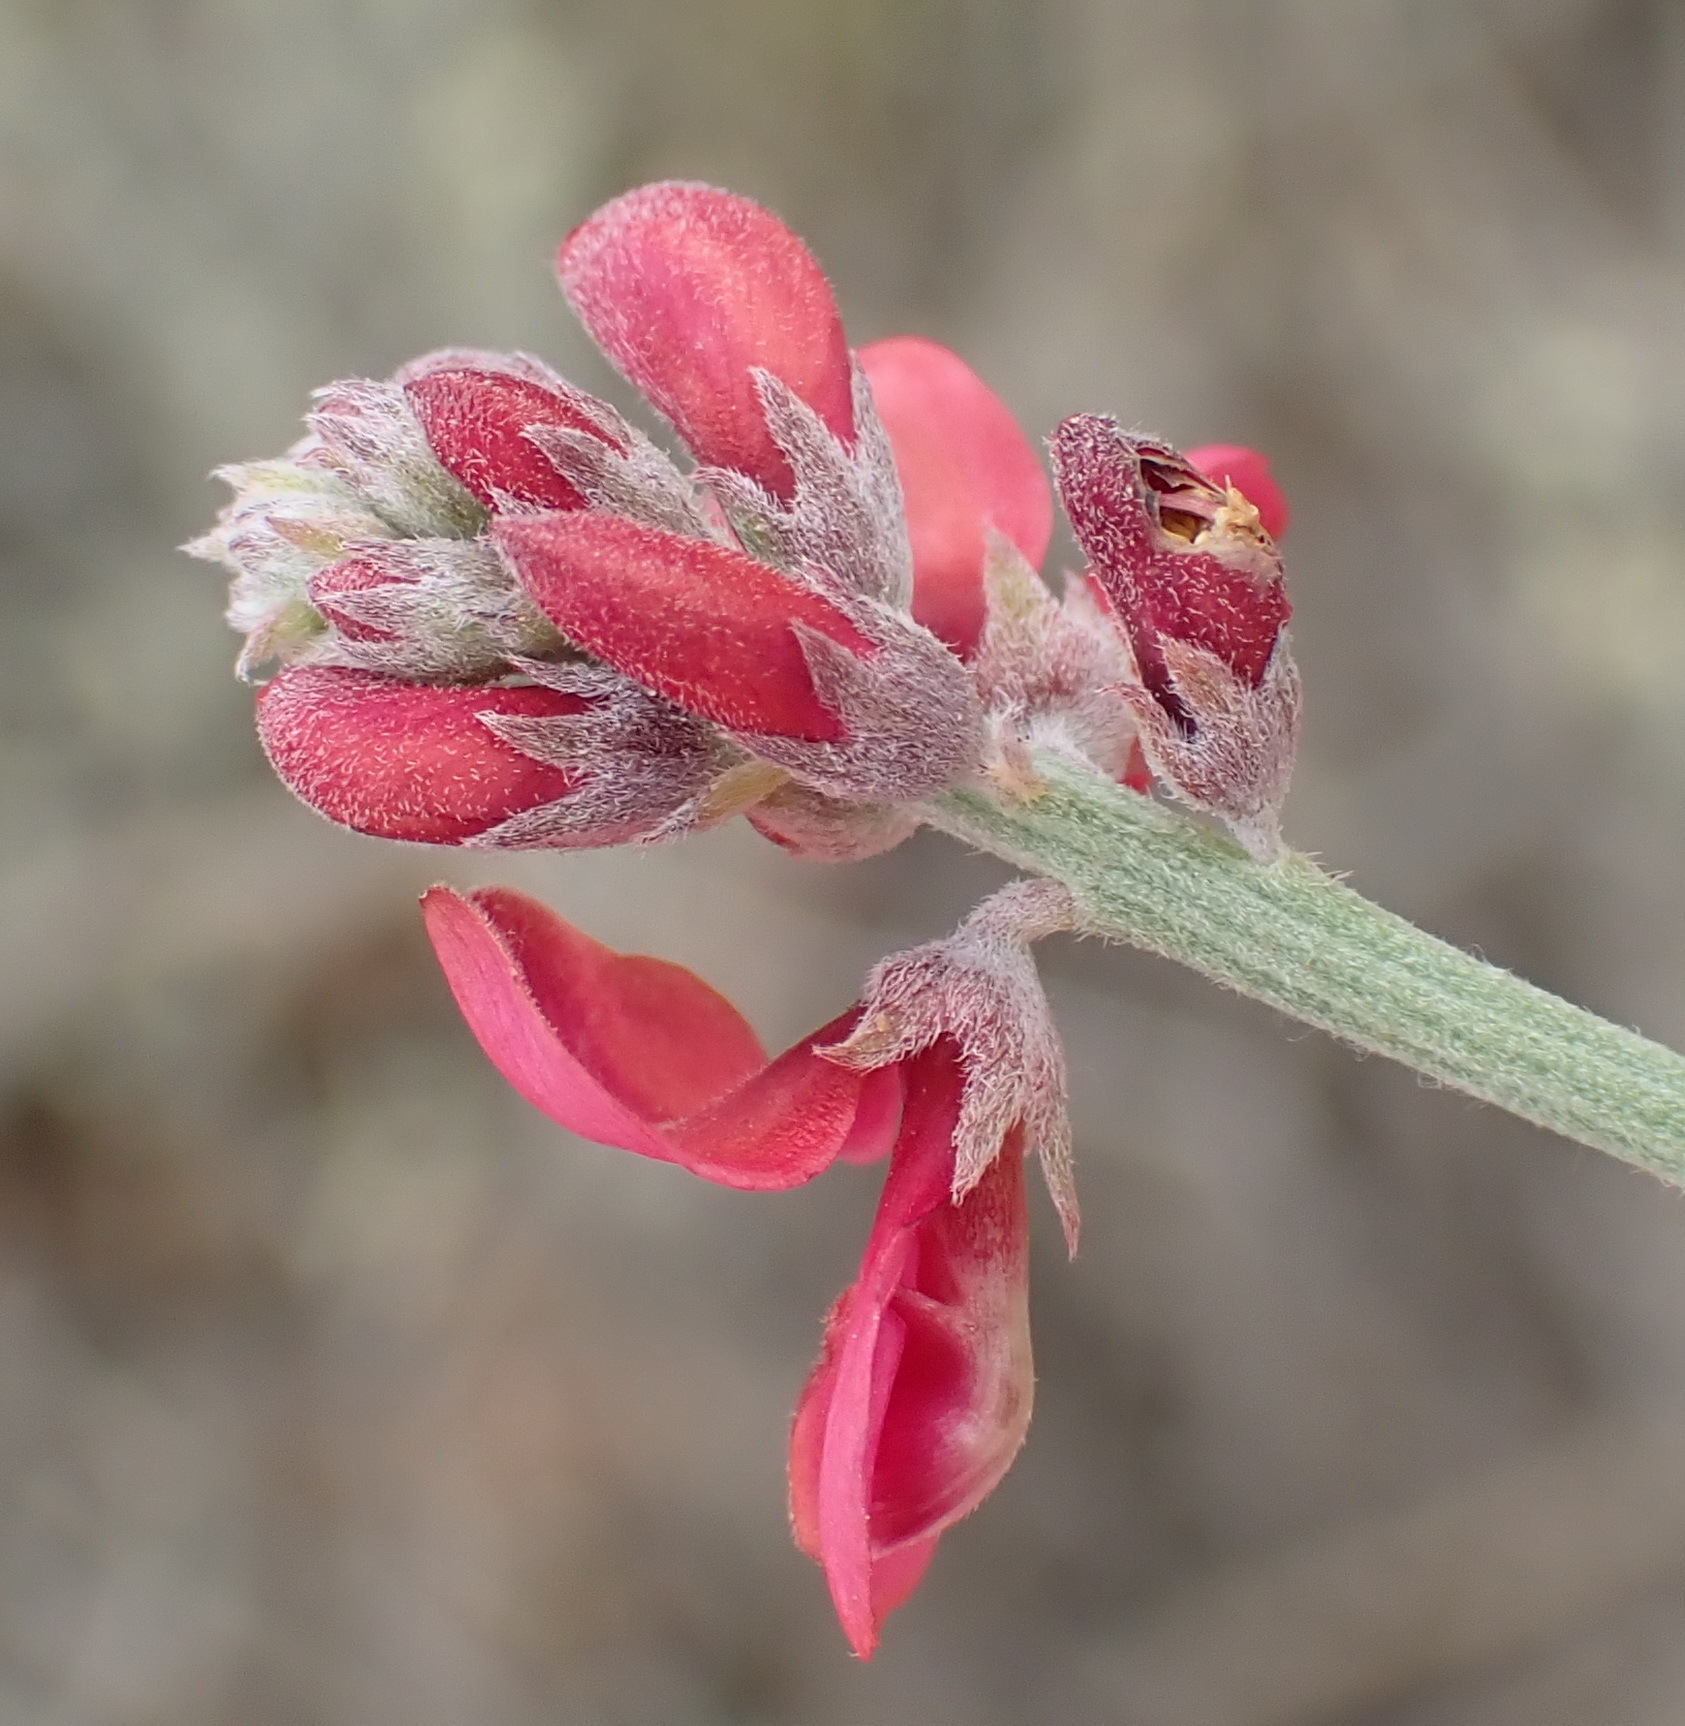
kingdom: Plantae
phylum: Tracheophyta
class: Magnoliopsida
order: Fabales
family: Fabaceae
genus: Indigofera
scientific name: Indigofera complicata
